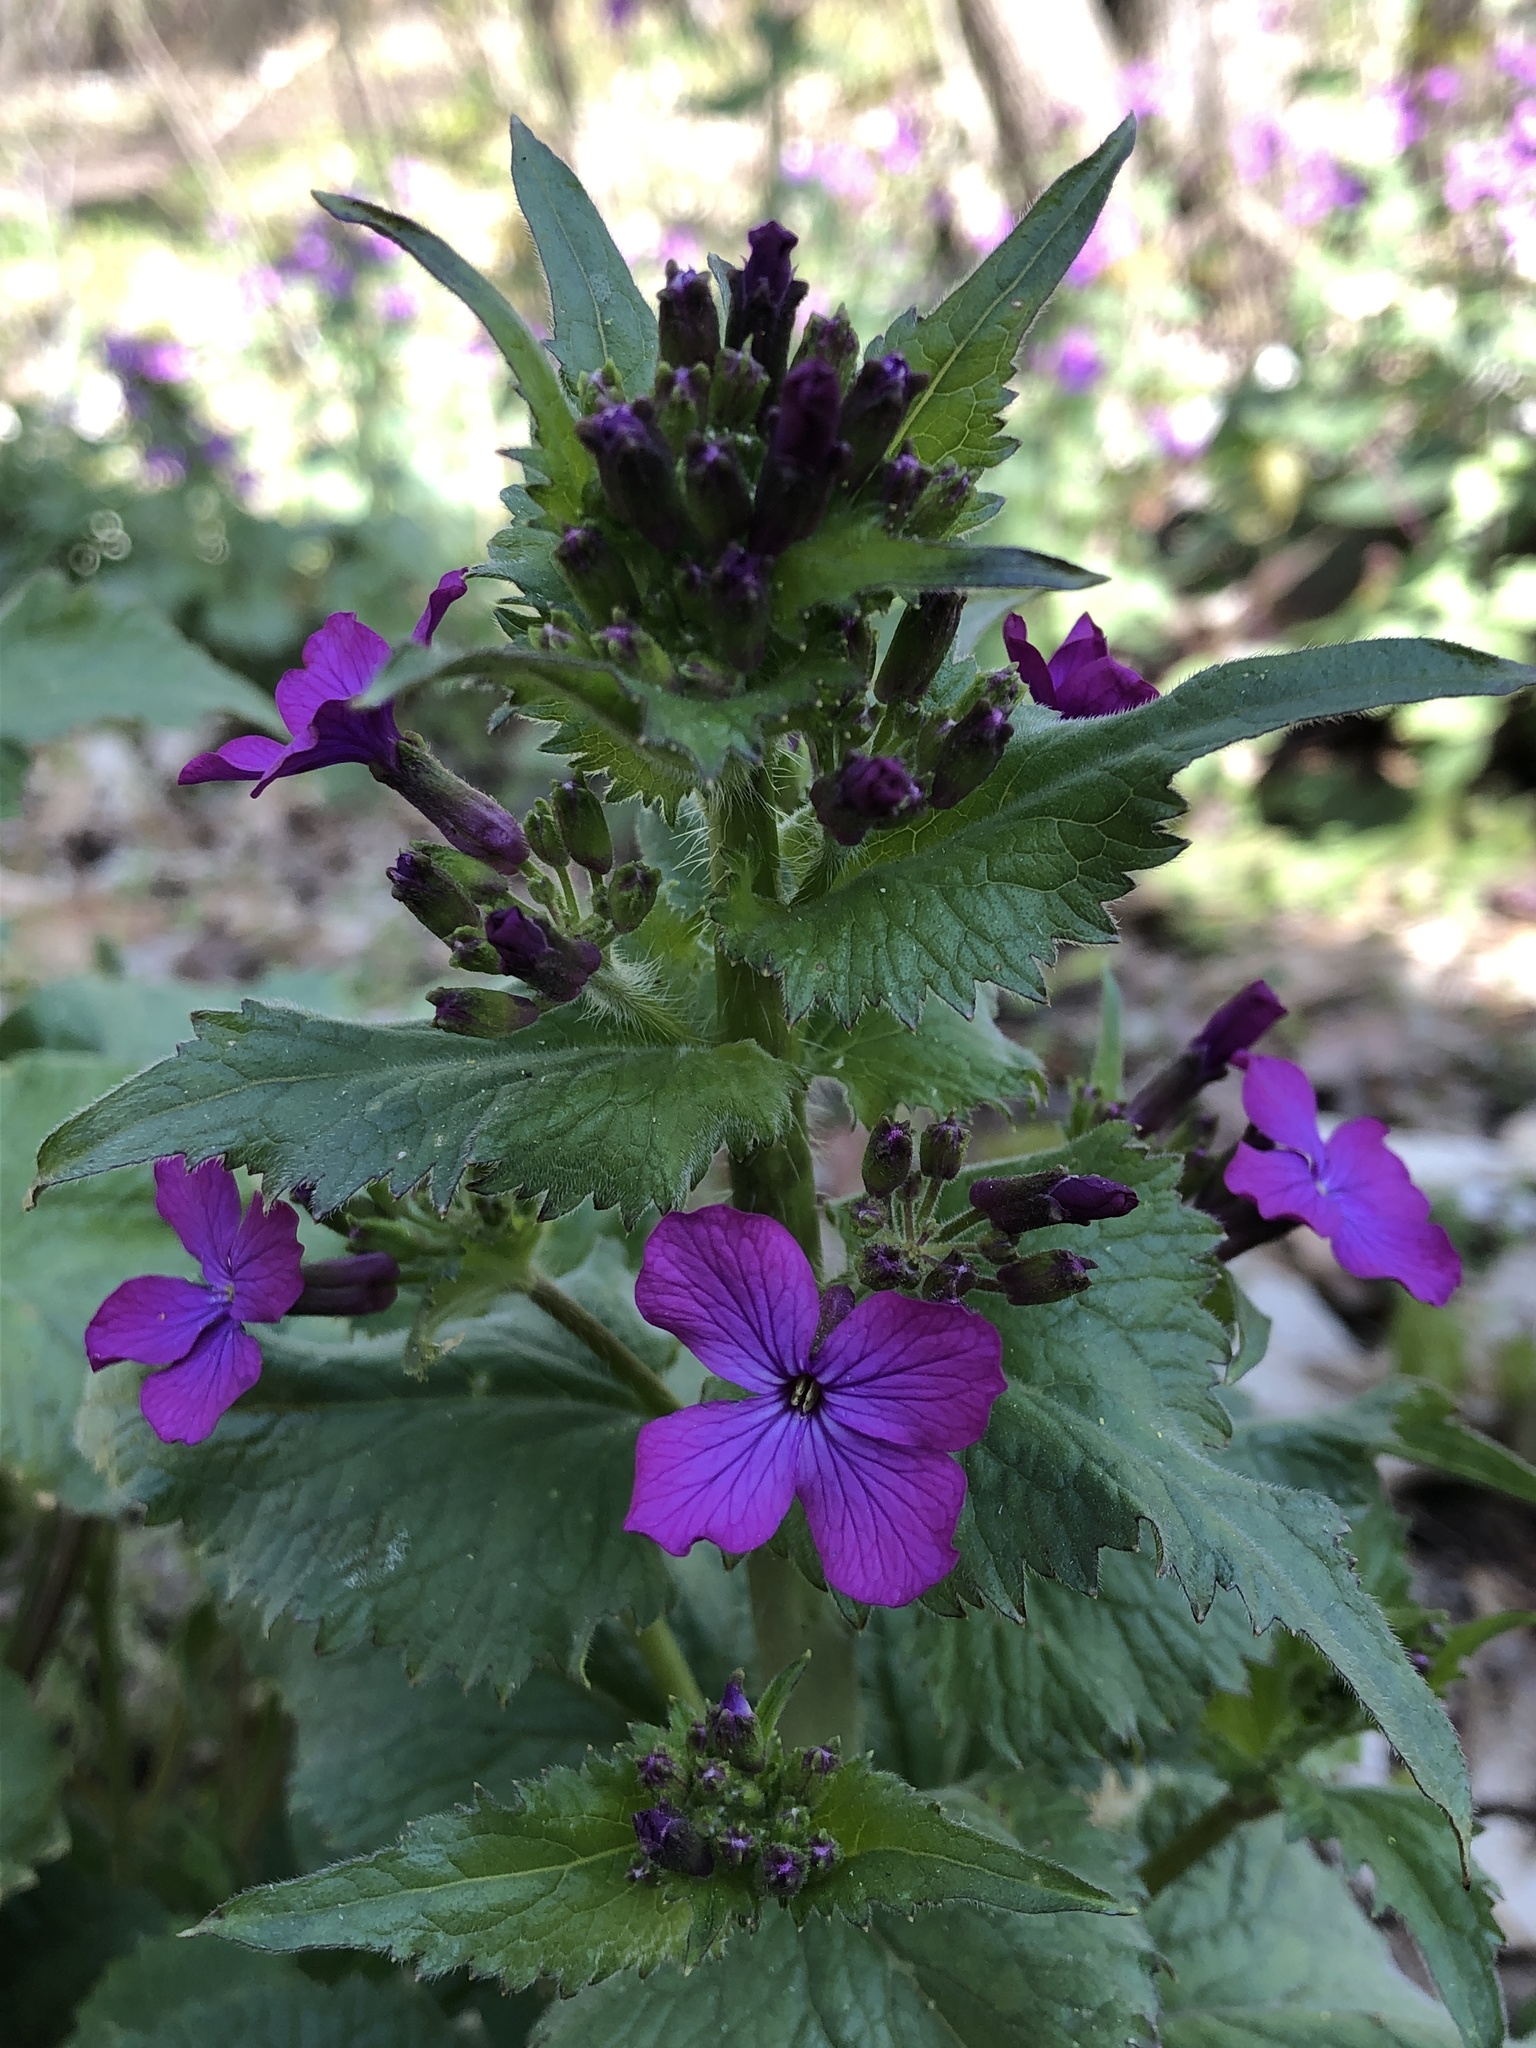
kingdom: Plantae
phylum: Tracheophyta
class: Magnoliopsida
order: Brassicales
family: Brassicaceae
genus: Lunaria
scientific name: Lunaria annua
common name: Honesty
